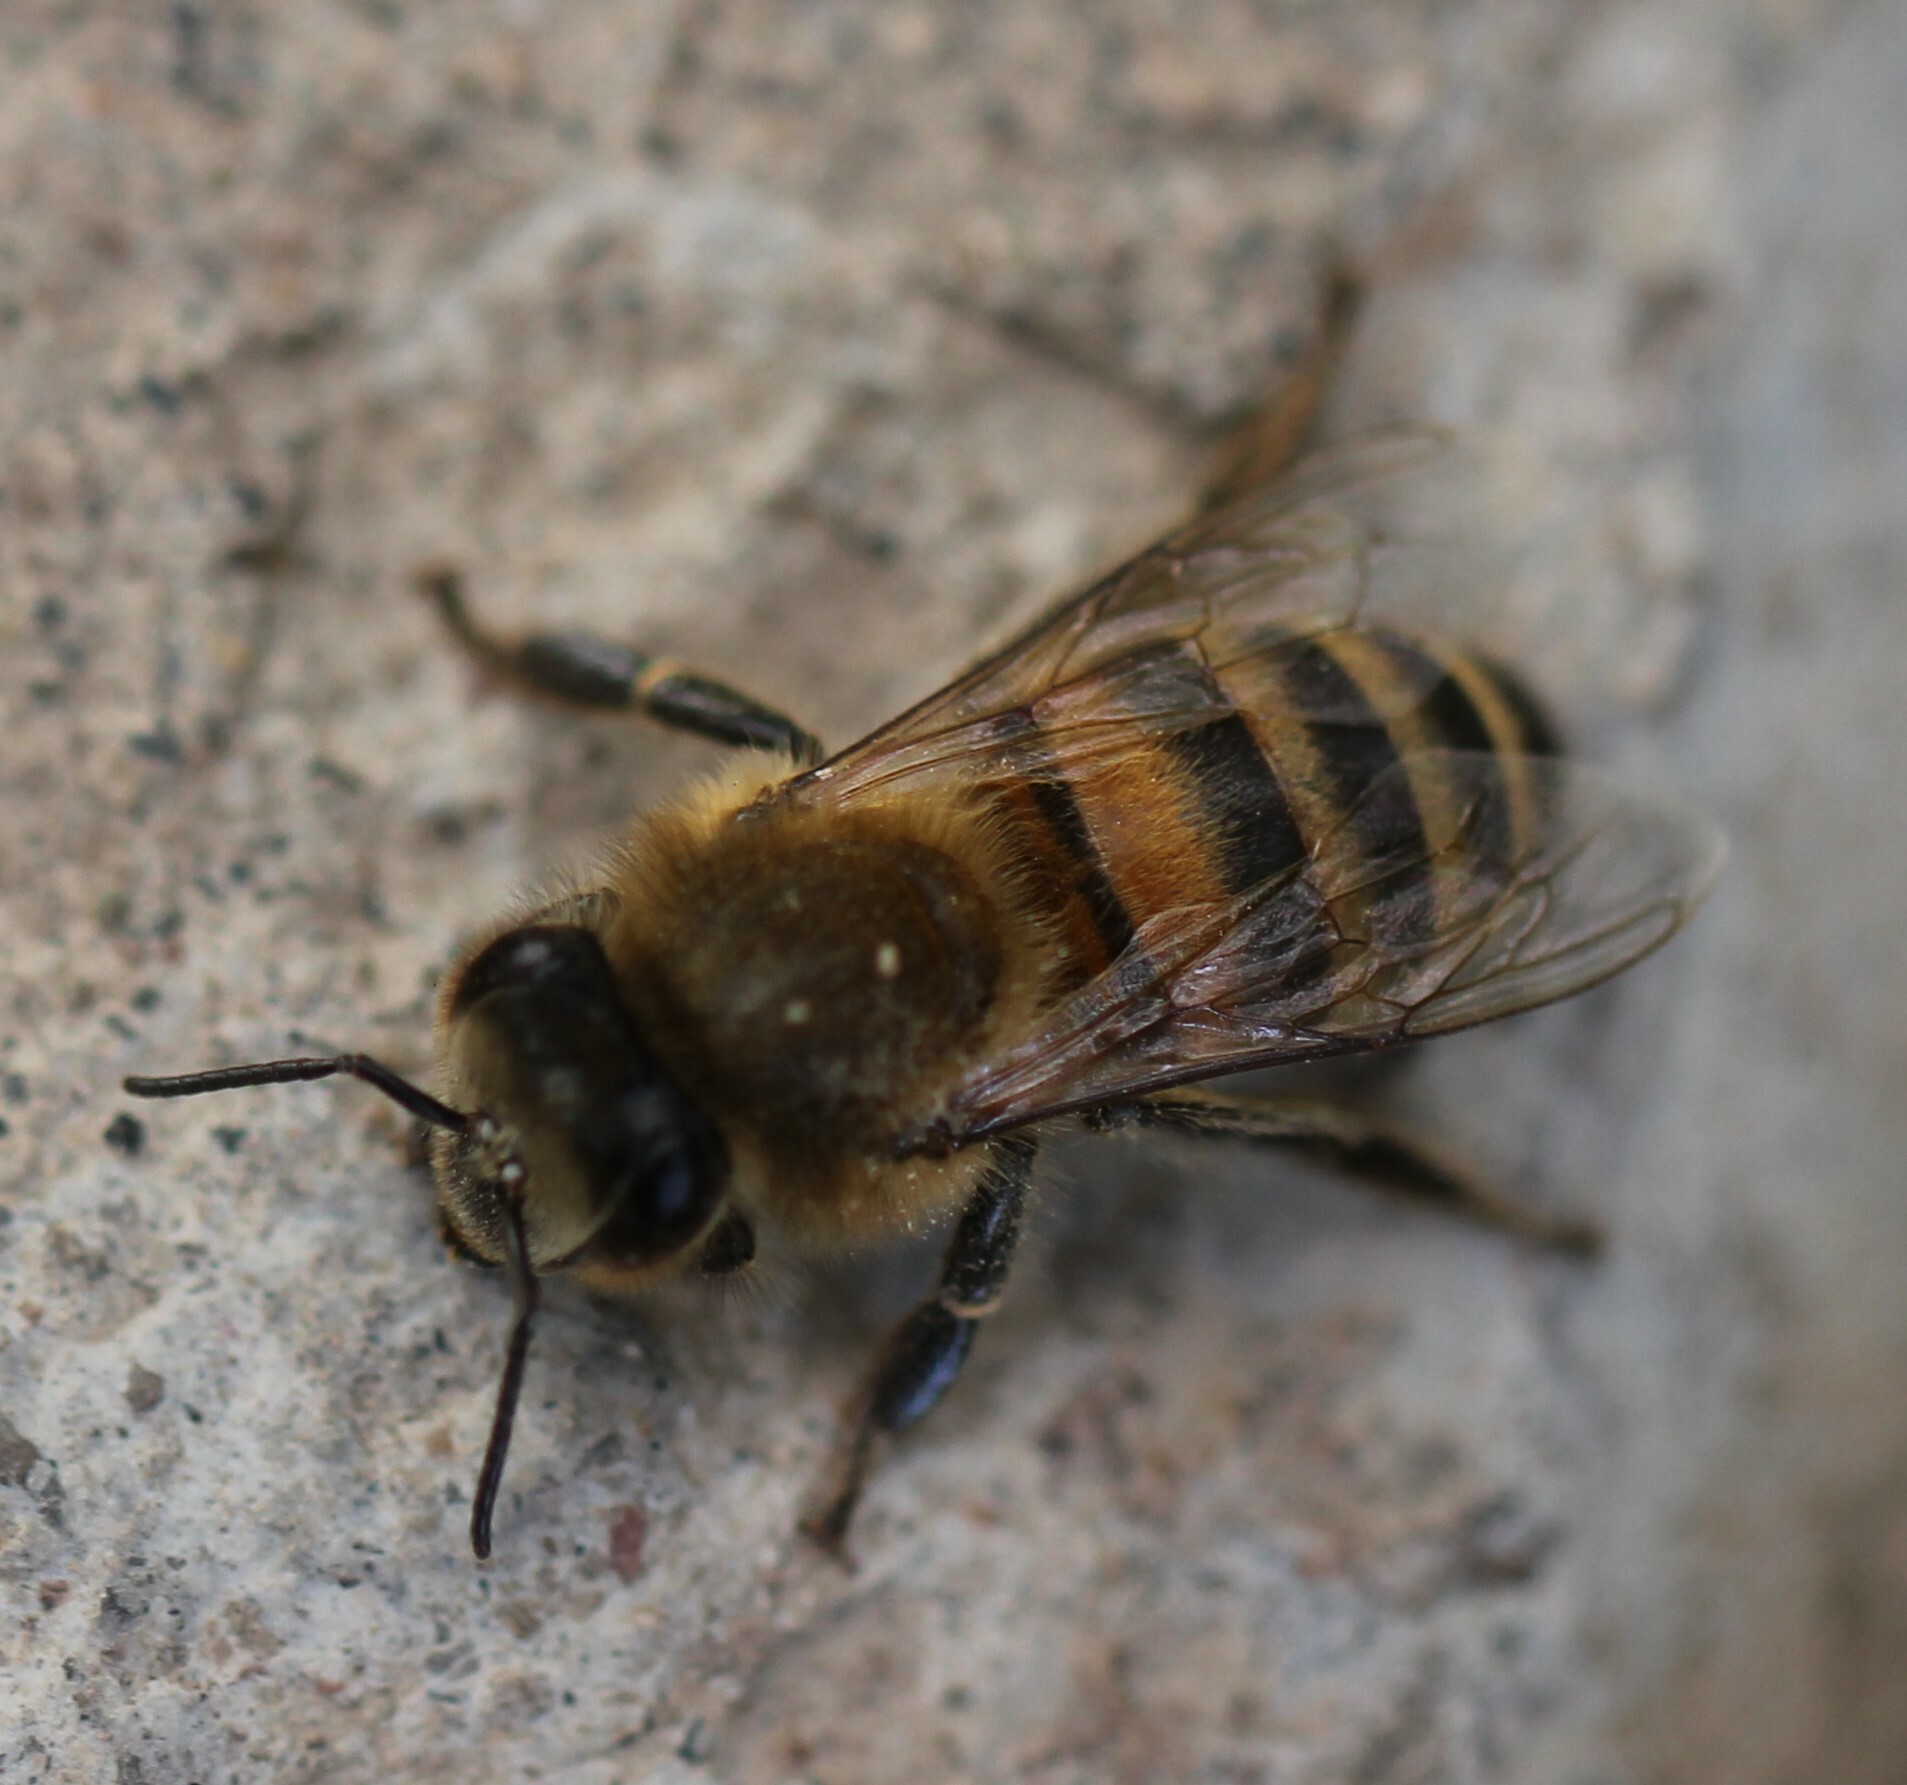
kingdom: Animalia
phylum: Arthropoda
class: Insecta
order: Hymenoptera
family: Apidae
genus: Apis
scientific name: Apis mellifera
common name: Honey bee
